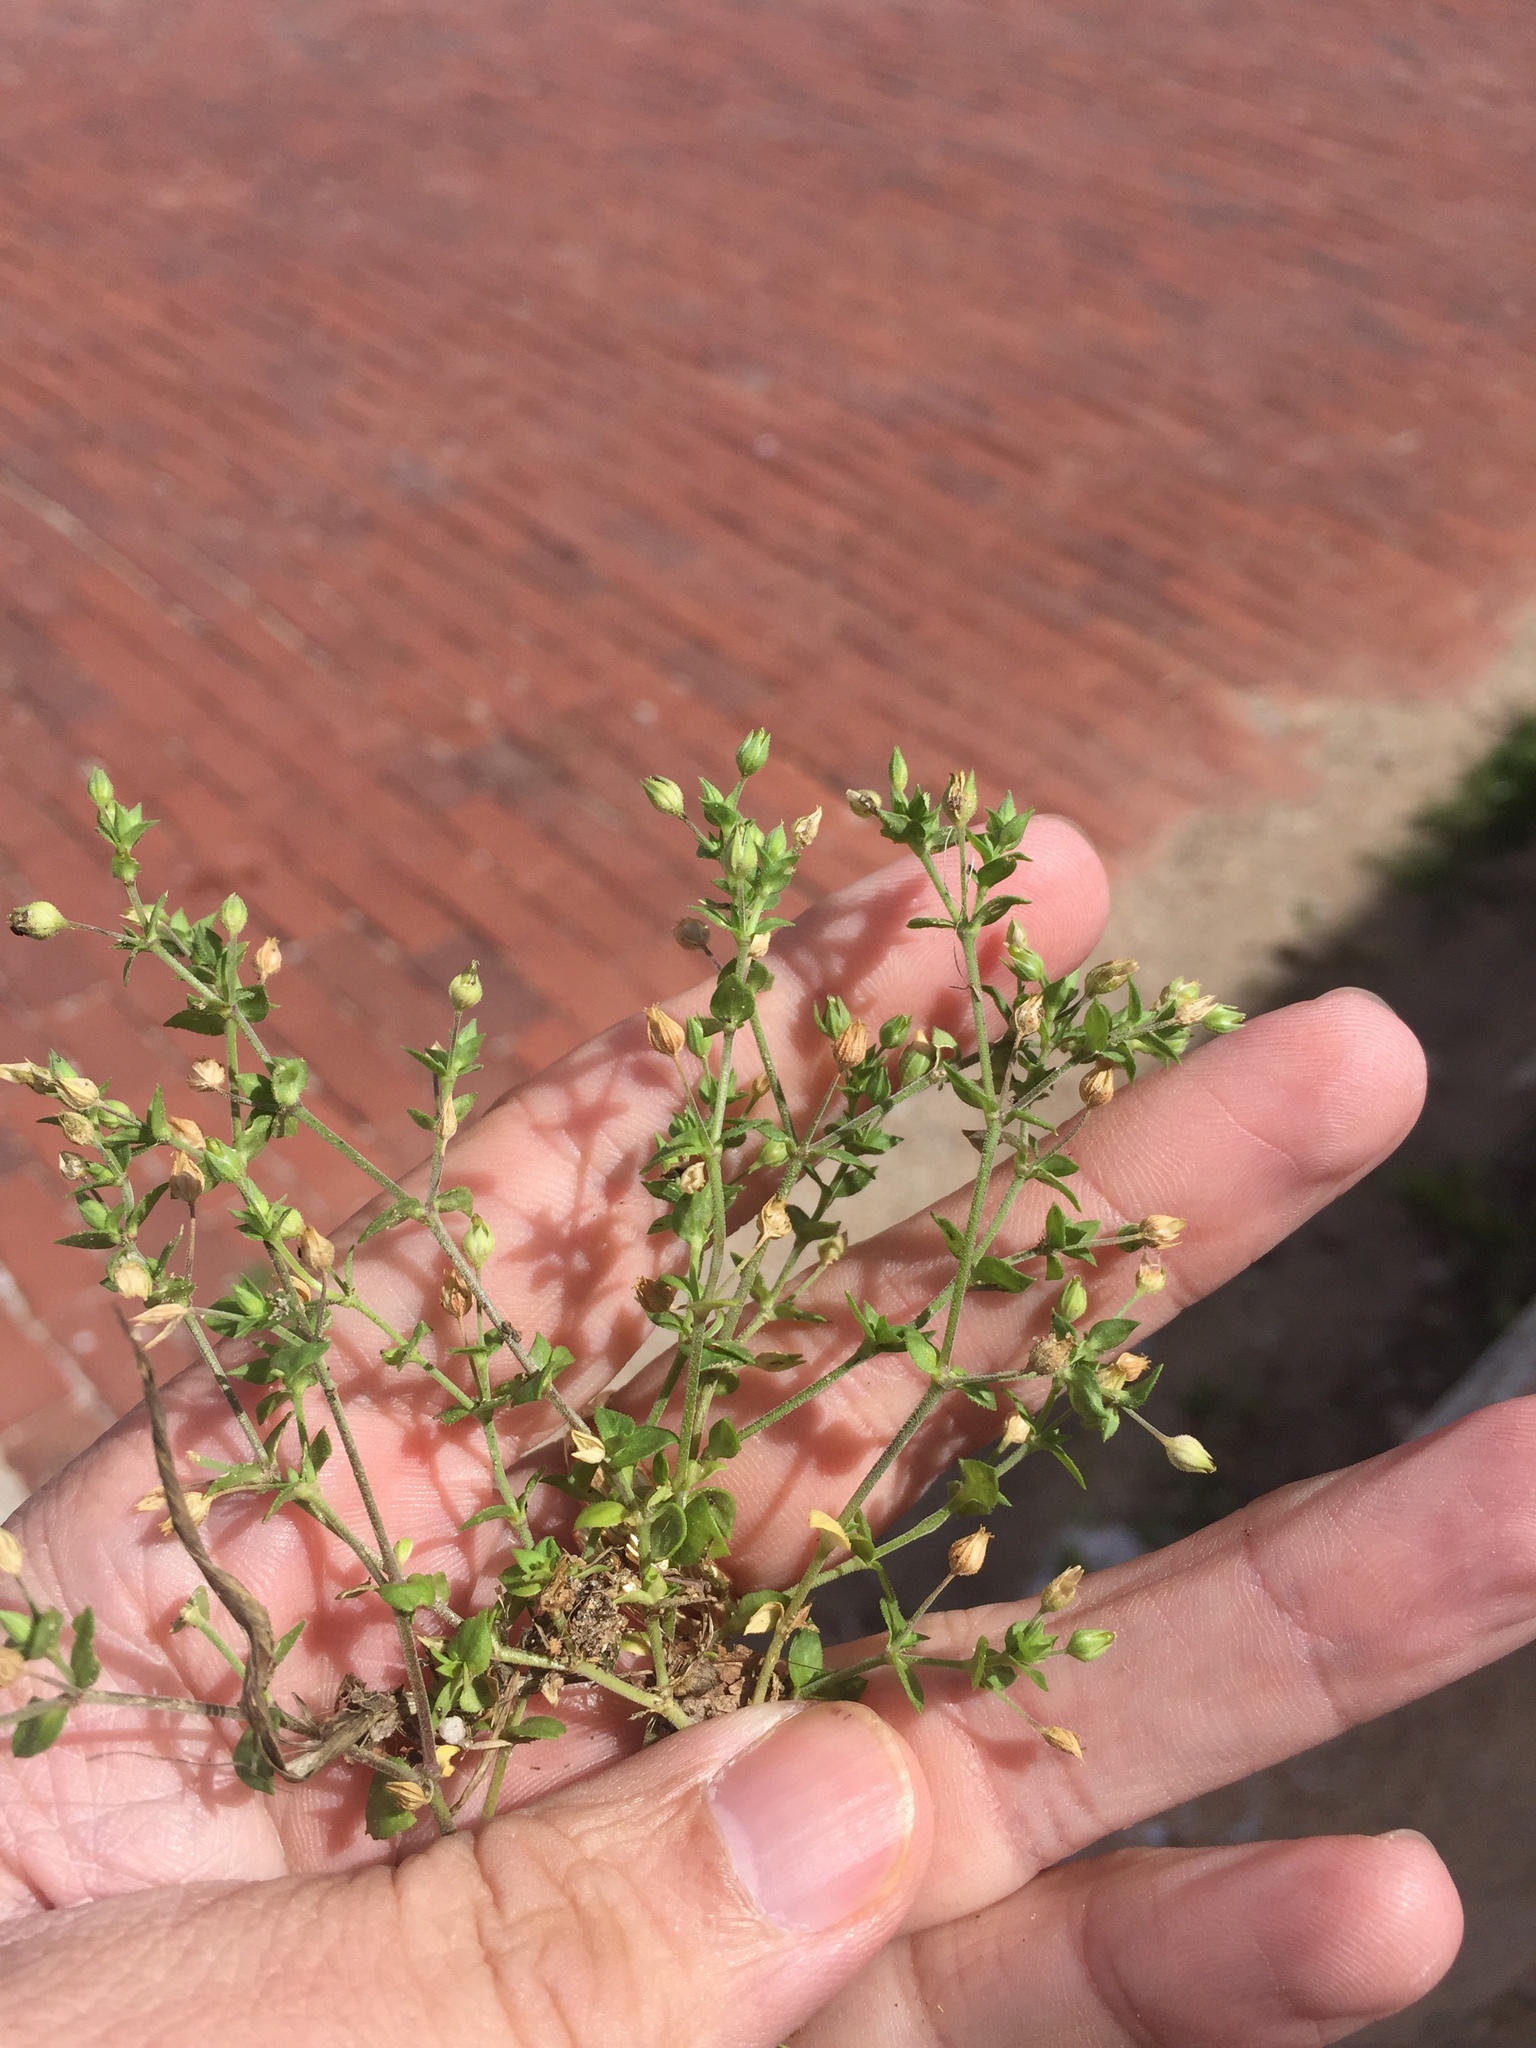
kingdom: Plantae
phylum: Tracheophyta
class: Magnoliopsida
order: Caryophyllales
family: Caryophyllaceae
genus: Arenaria
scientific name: Arenaria serpyllifolia
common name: Thyme-leaved sandwort
